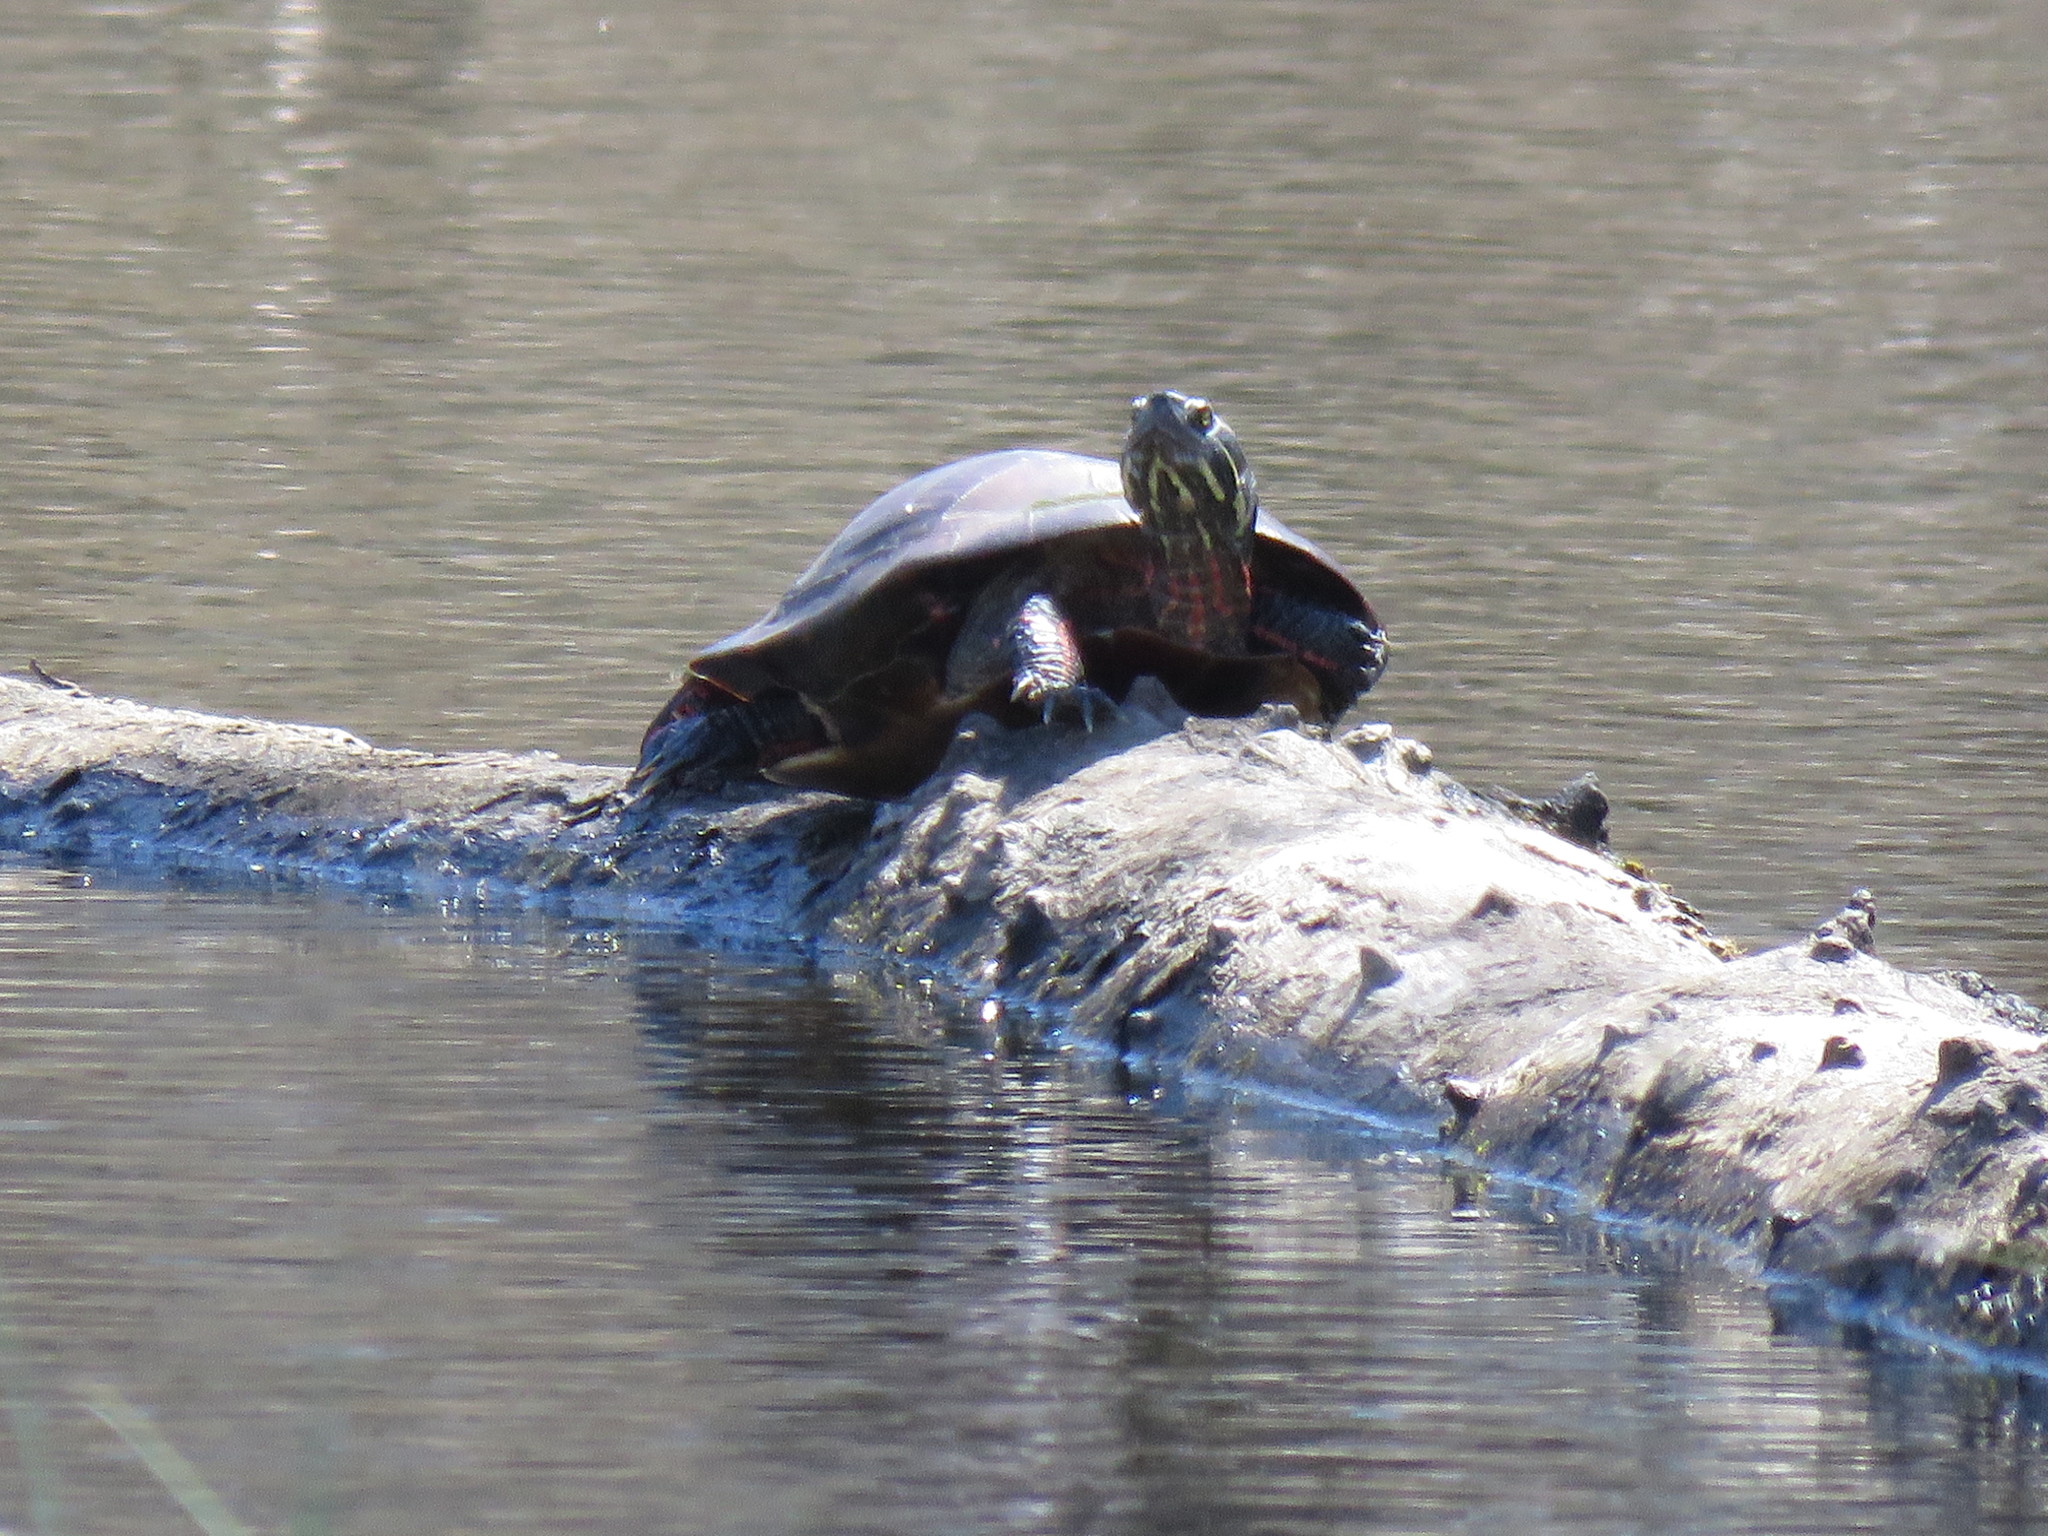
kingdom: Animalia
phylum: Chordata
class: Testudines
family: Emydidae
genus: Chrysemys
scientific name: Chrysemys picta
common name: Painted turtle
